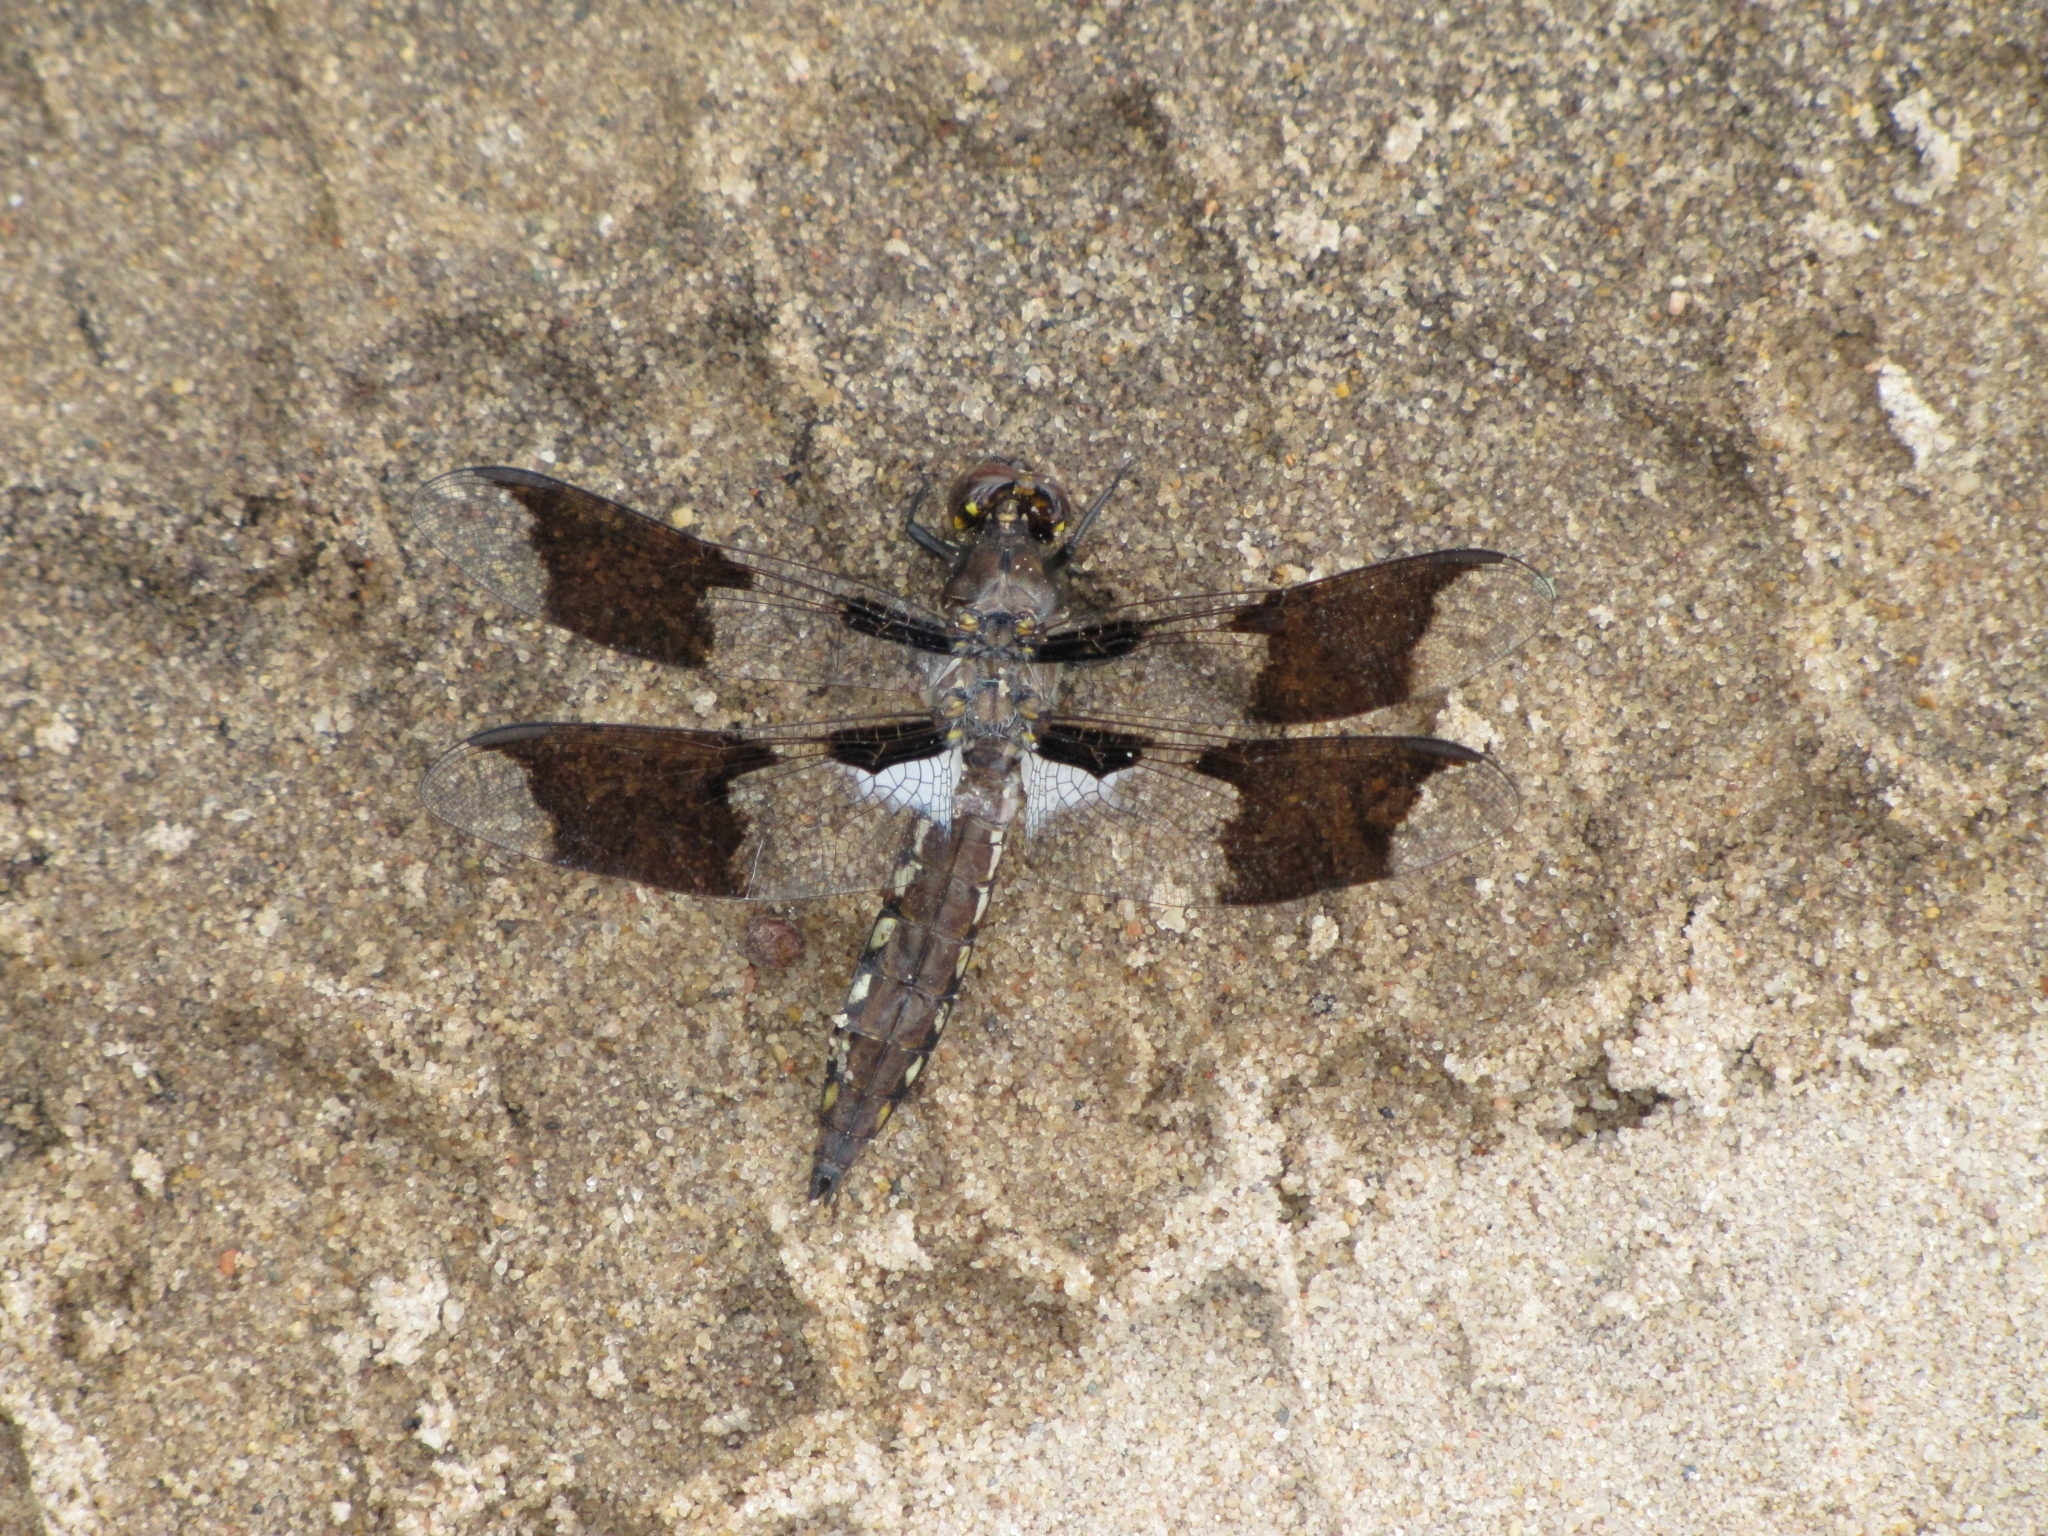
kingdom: Animalia
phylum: Arthropoda
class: Insecta
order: Odonata
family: Libellulidae
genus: Plathemis
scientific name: Plathemis lydia
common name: Common whitetail
